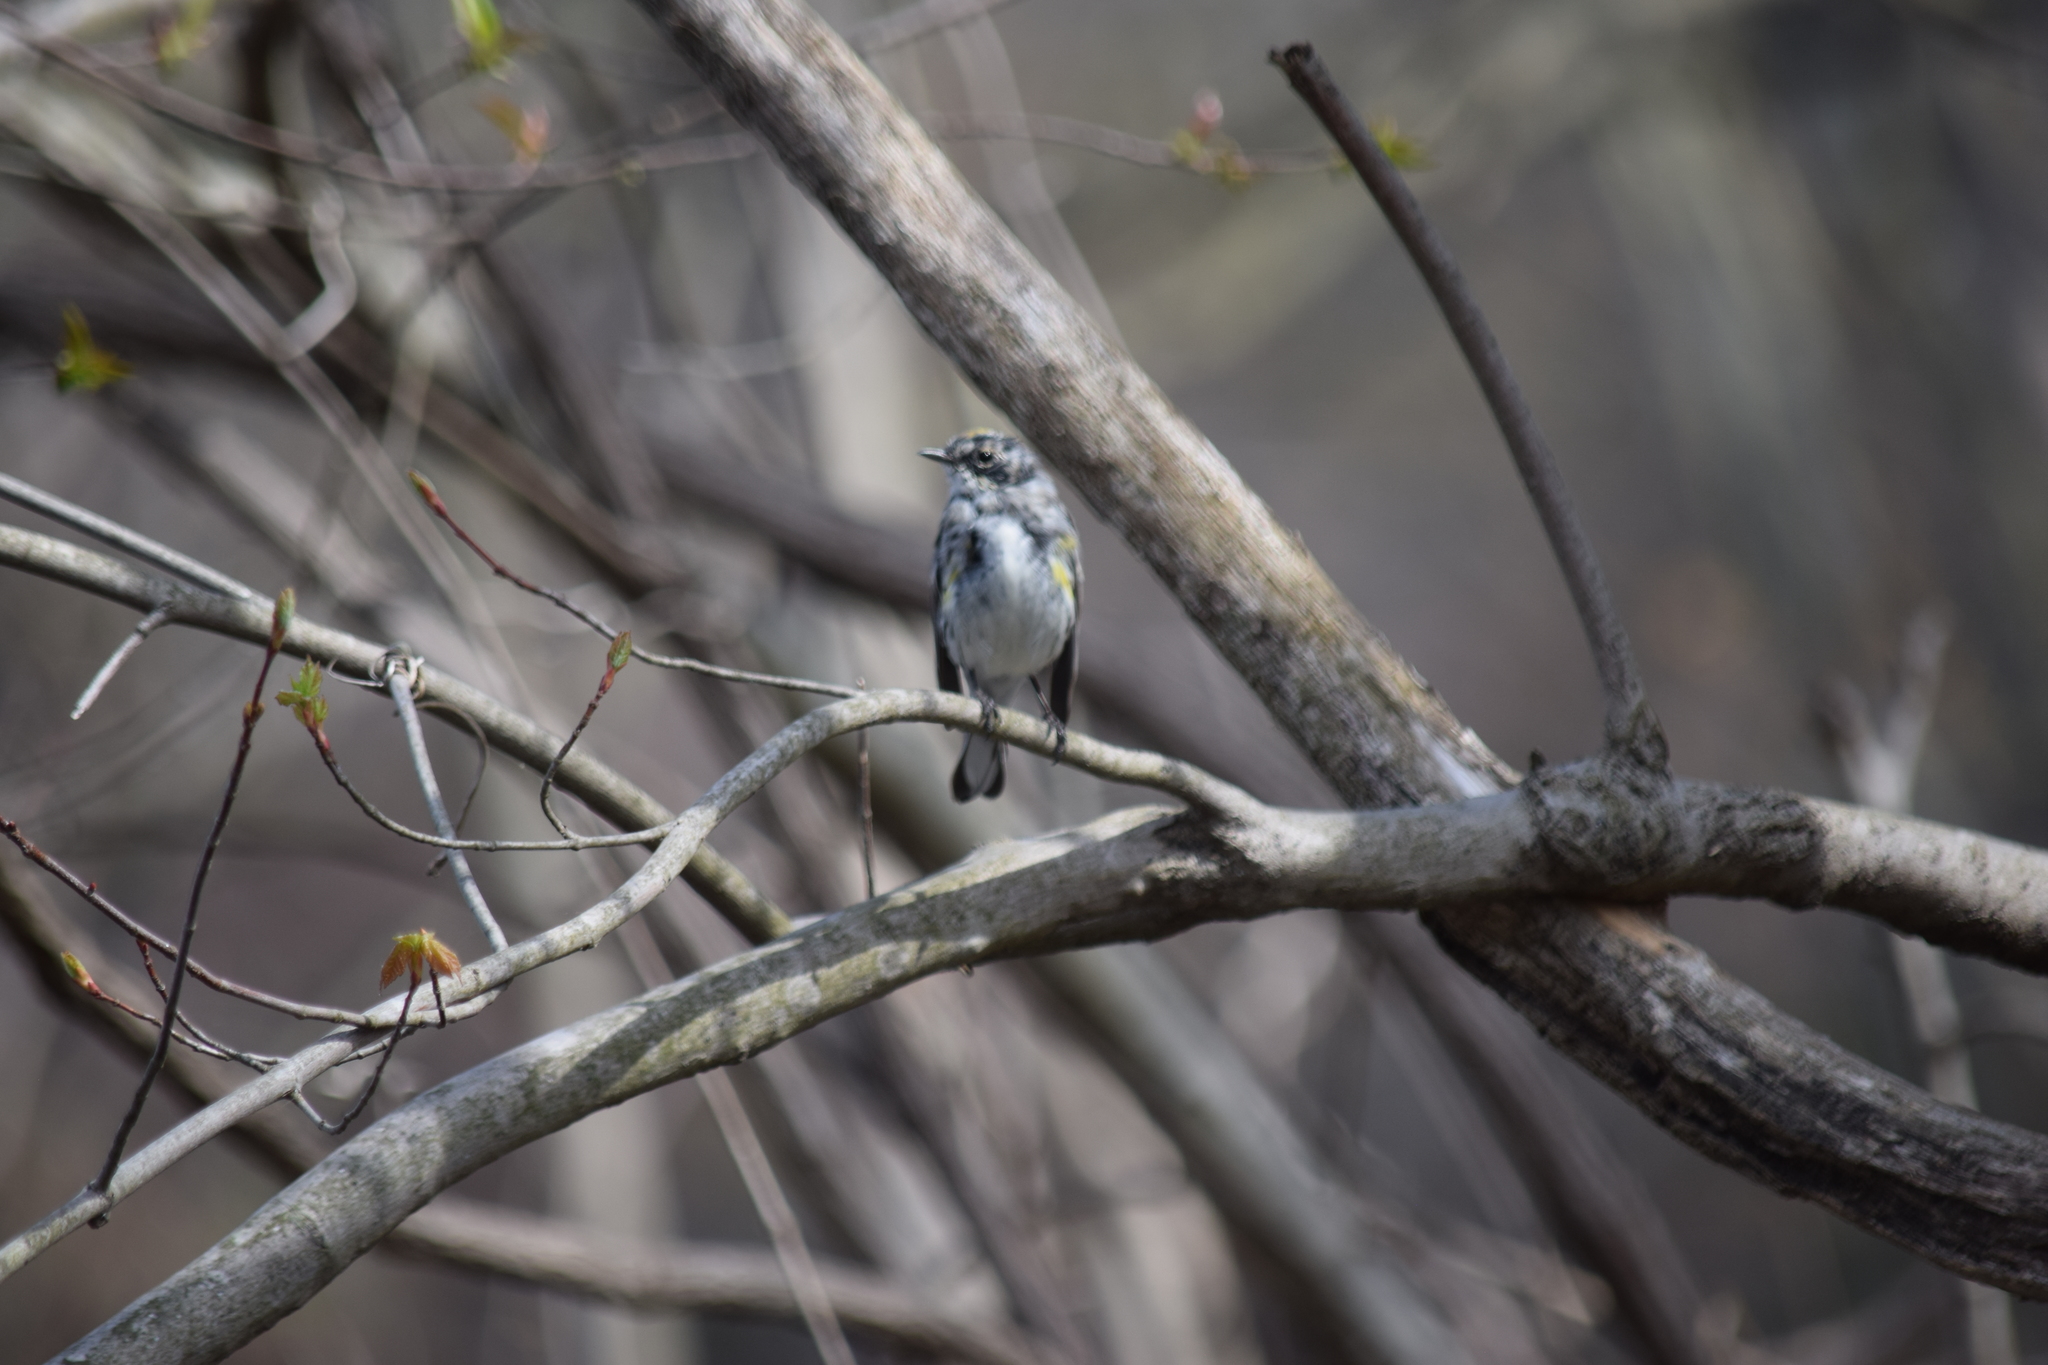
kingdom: Animalia
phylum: Chordata
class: Aves
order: Passeriformes
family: Parulidae
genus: Setophaga
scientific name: Setophaga coronata
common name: Myrtle warbler
